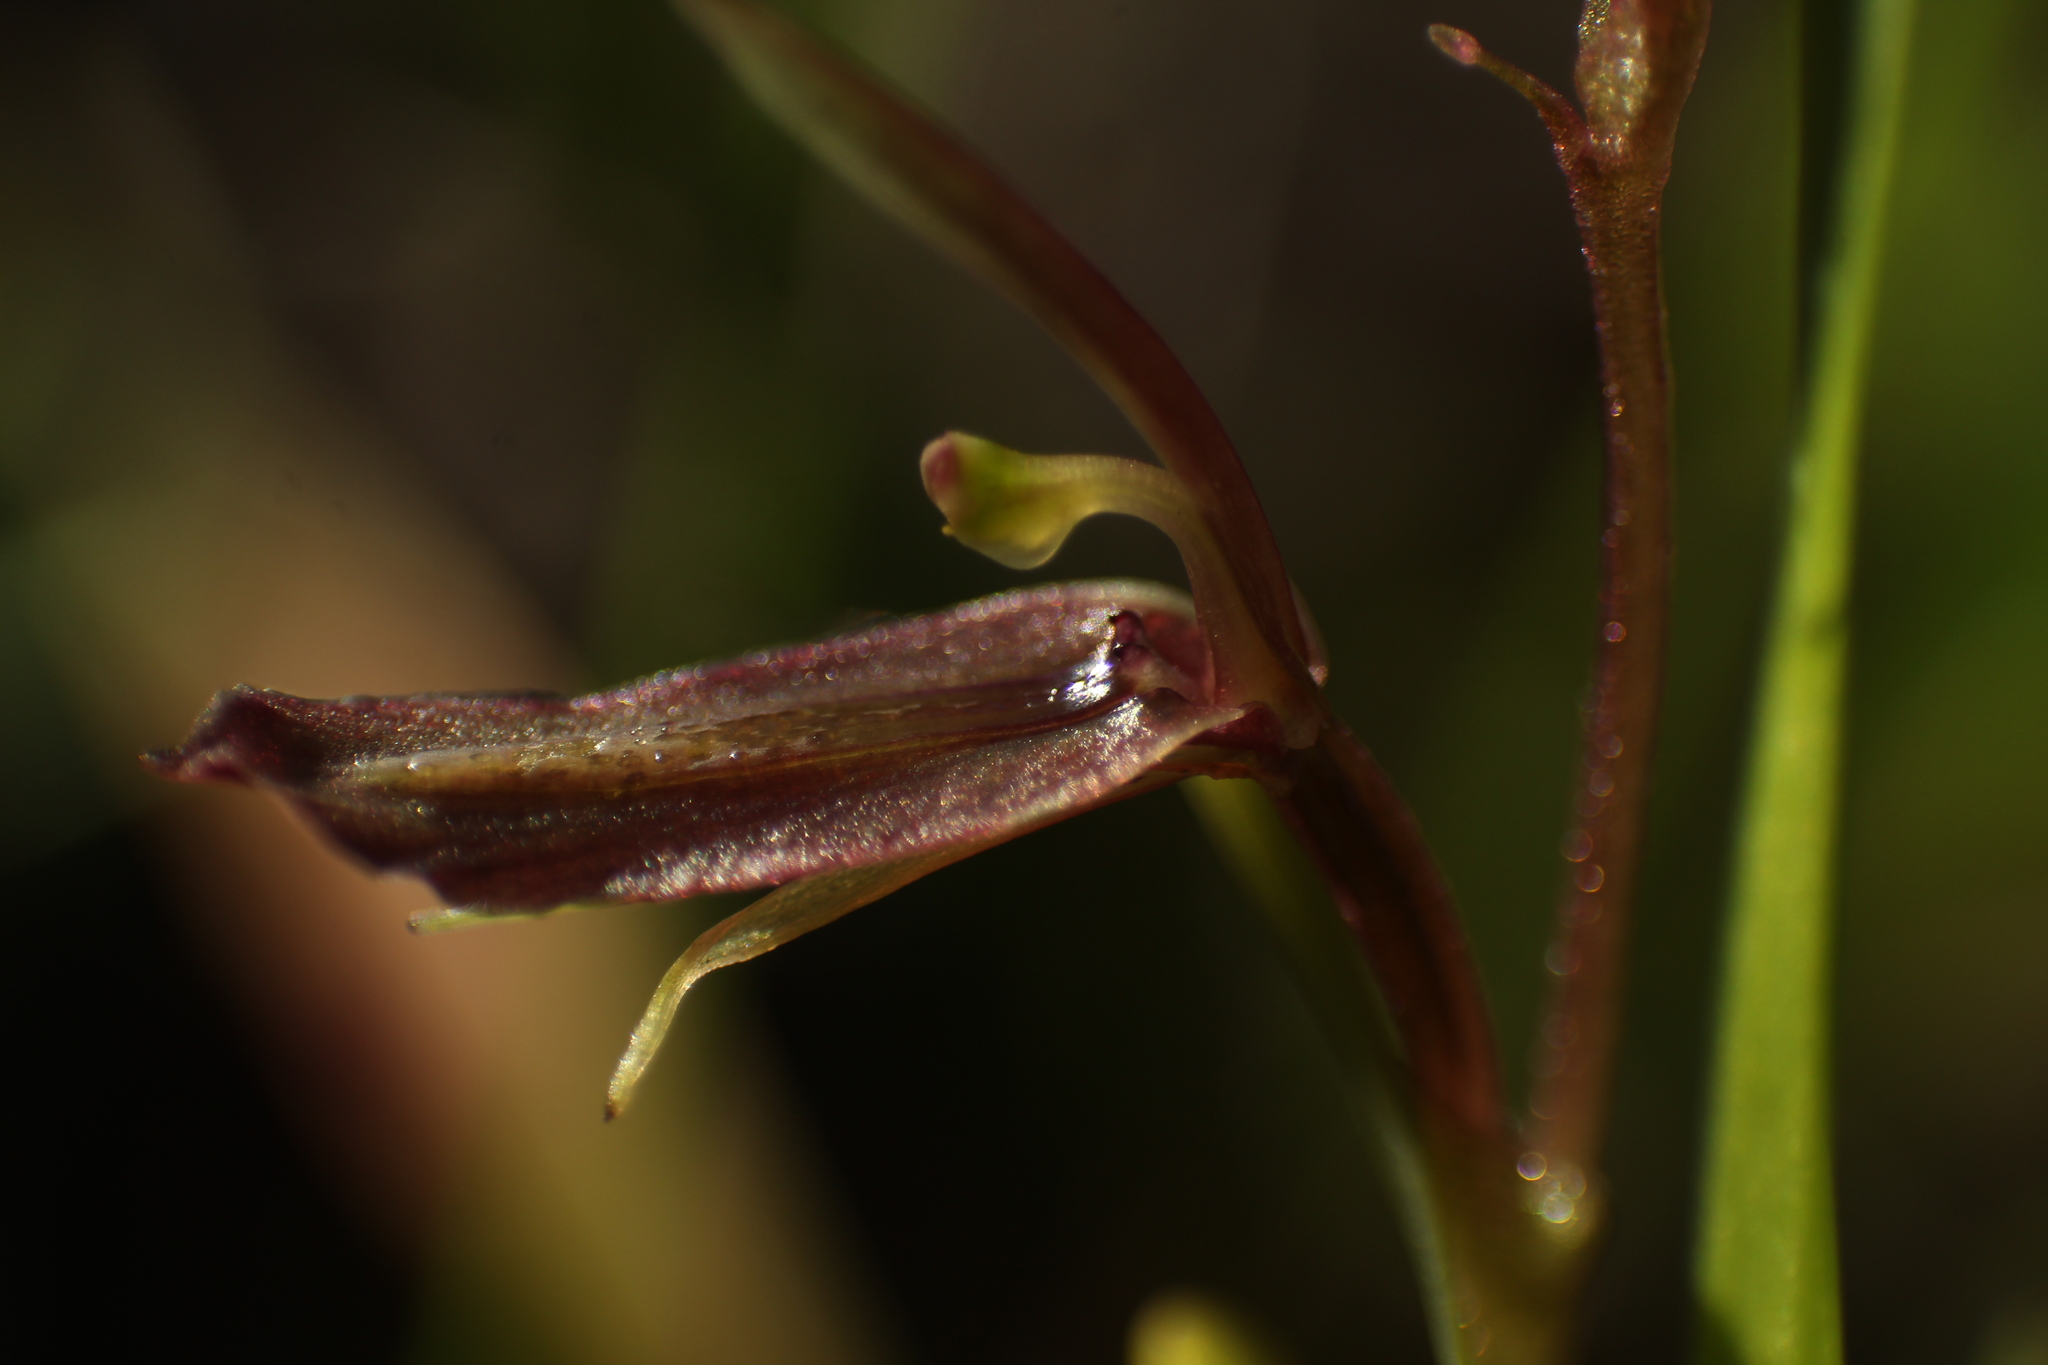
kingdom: Plantae
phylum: Tracheophyta
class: Liliopsida
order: Asparagales
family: Orchidaceae
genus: Cyrtostylis
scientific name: Cyrtostylis robusta
